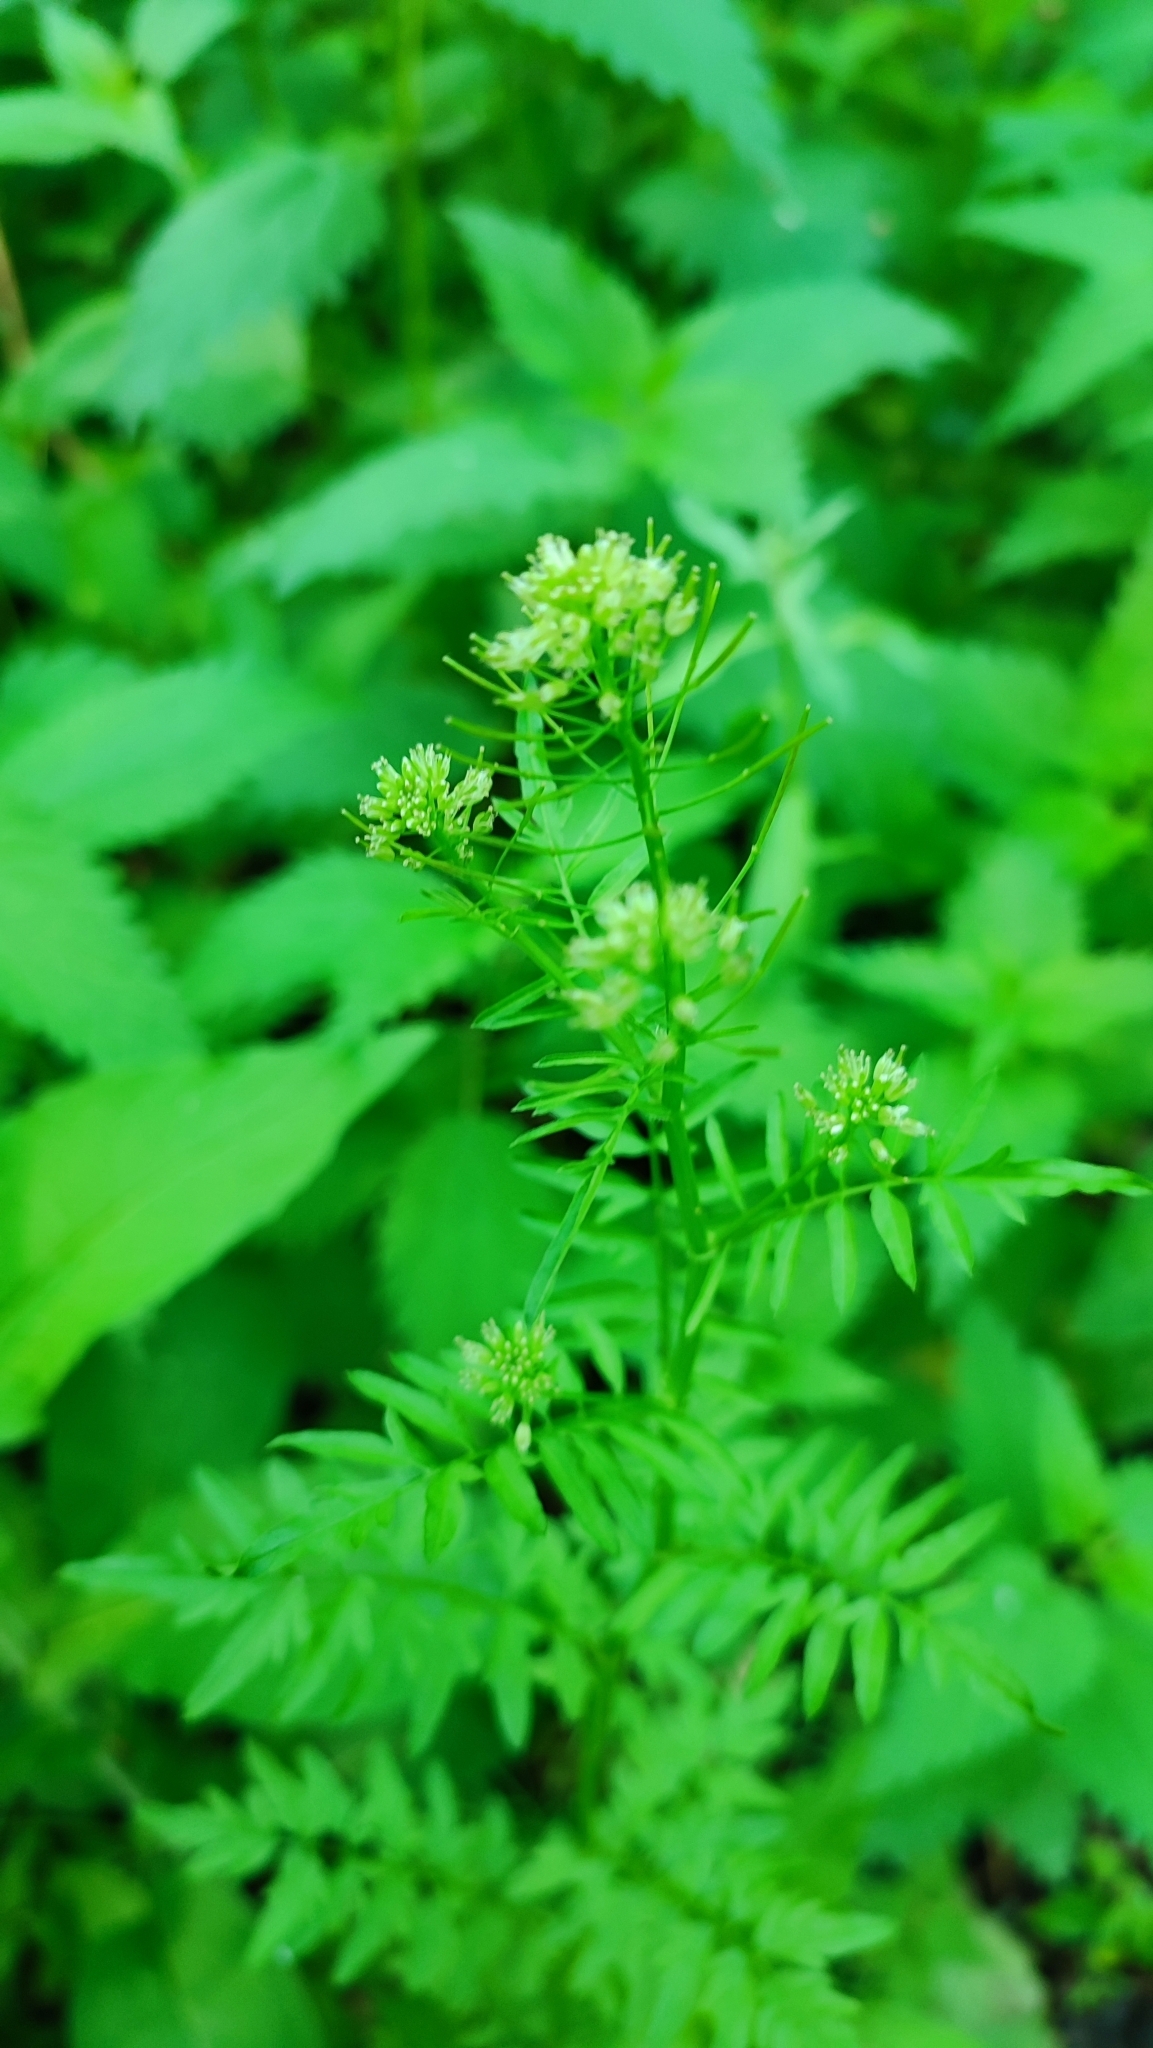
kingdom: Plantae
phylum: Tracheophyta
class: Magnoliopsida
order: Brassicales
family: Brassicaceae
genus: Cardamine
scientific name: Cardamine impatiens
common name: Narrow-leaved bitter-cress
